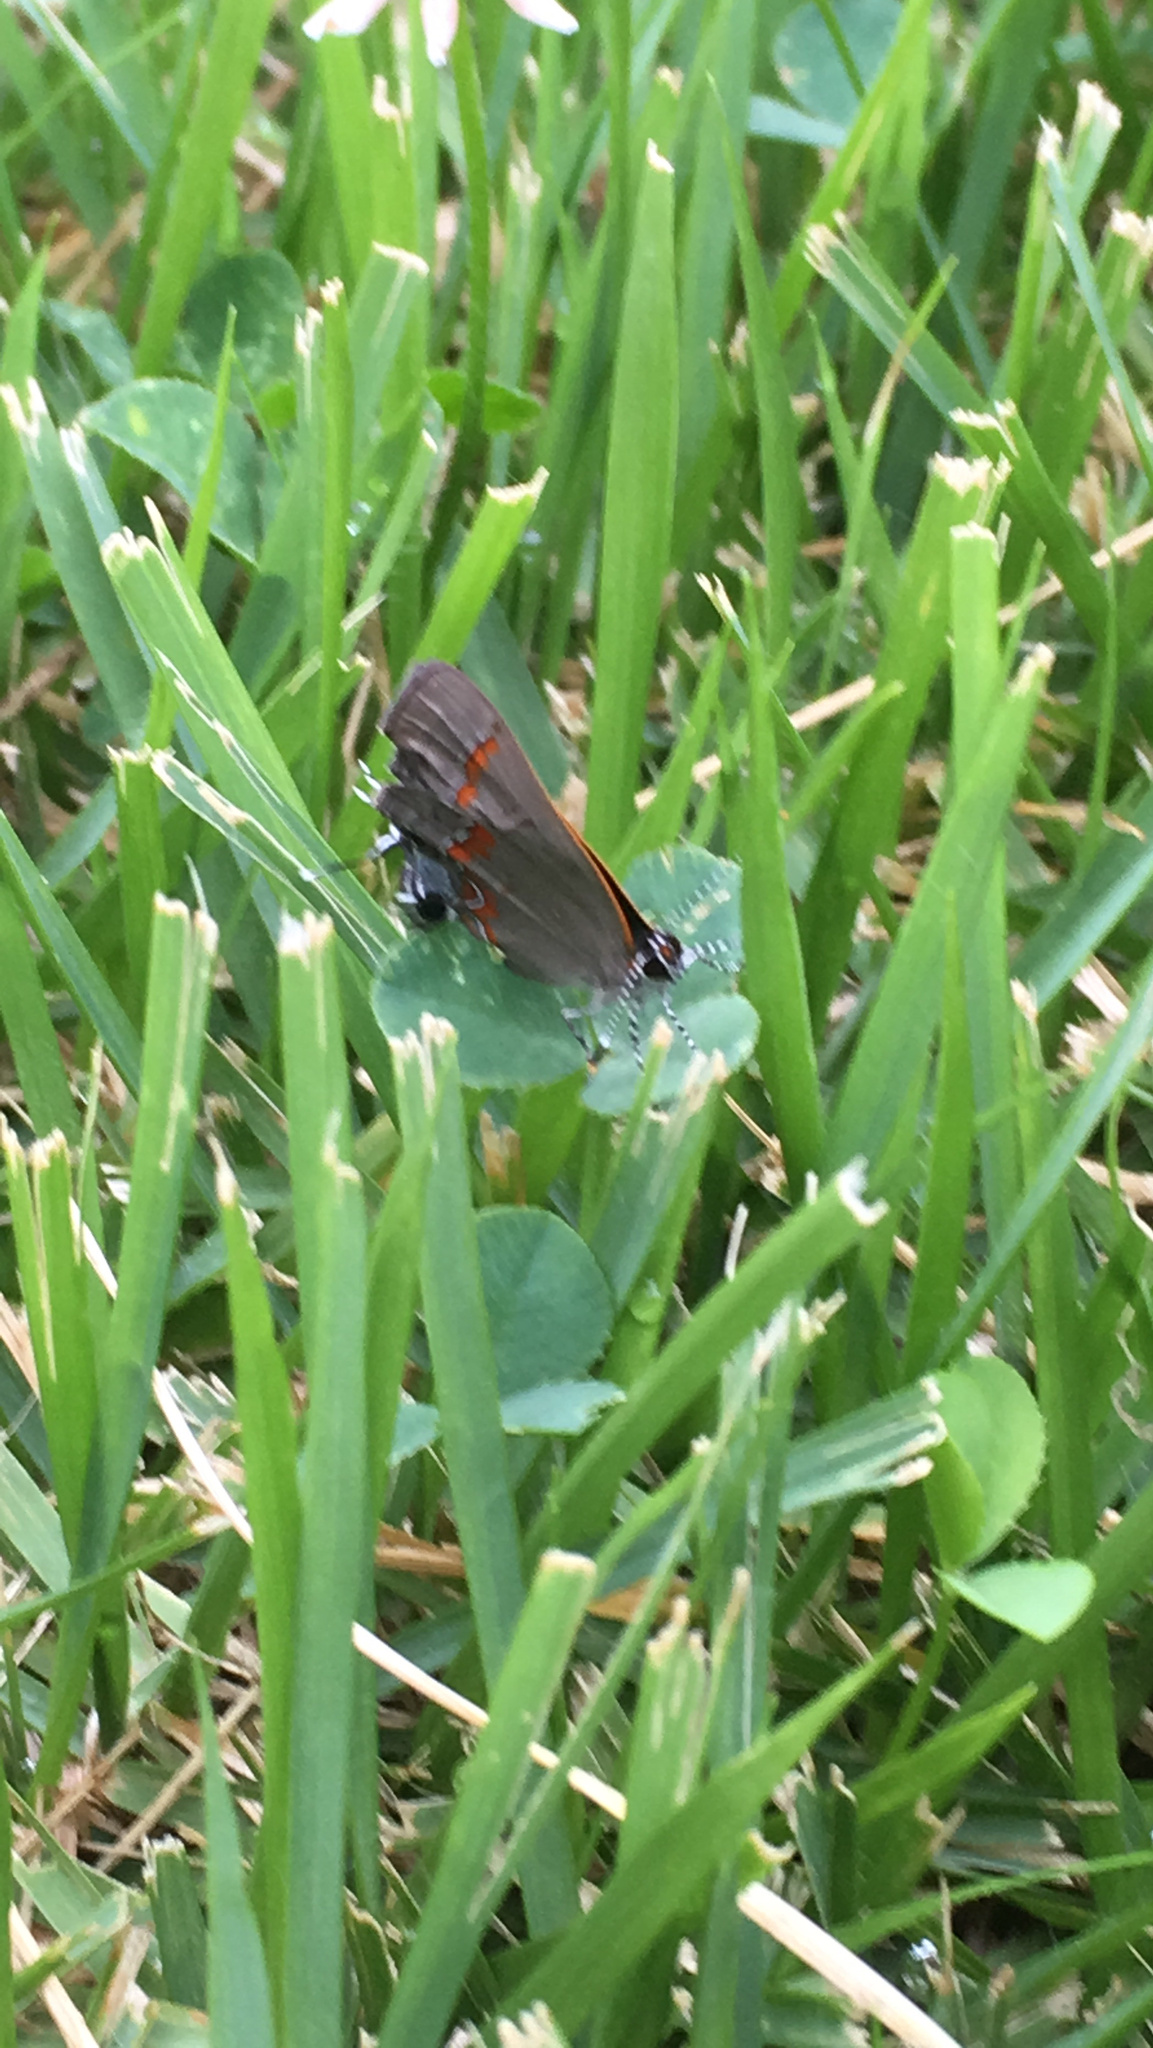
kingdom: Animalia
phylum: Arthropoda
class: Insecta
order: Lepidoptera
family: Lycaenidae
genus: Calycopis
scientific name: Calycopis cecrops
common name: Red-banded hairstreak
